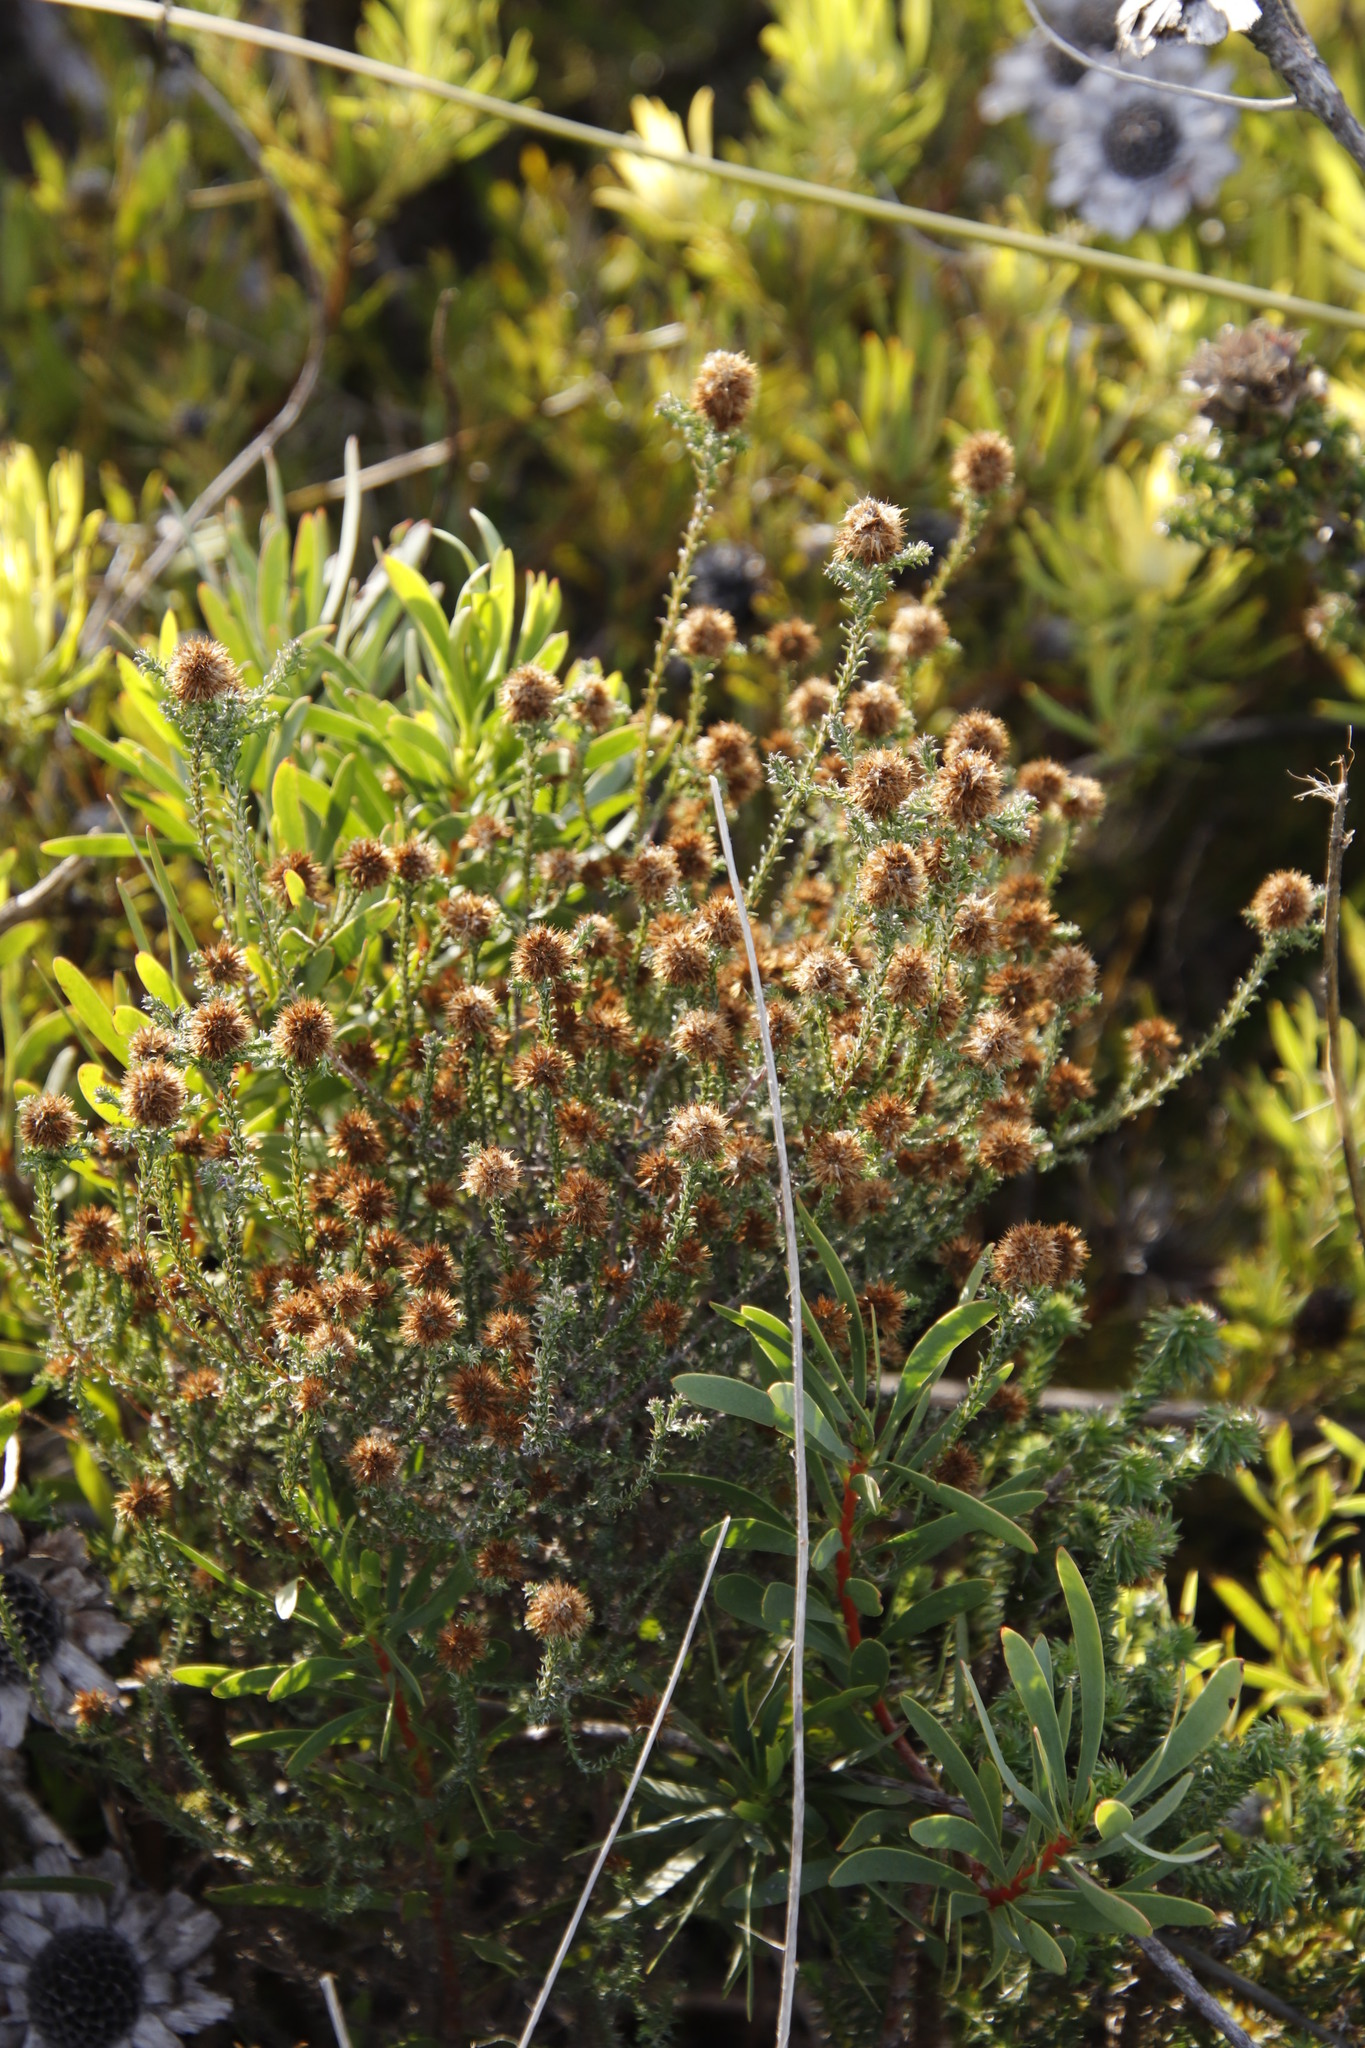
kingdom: Plantae
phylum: Tracheophyta
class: Magnoliopsida
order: Asterales
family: Asteraceae
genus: Seriphium
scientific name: Seriphium cinereum
